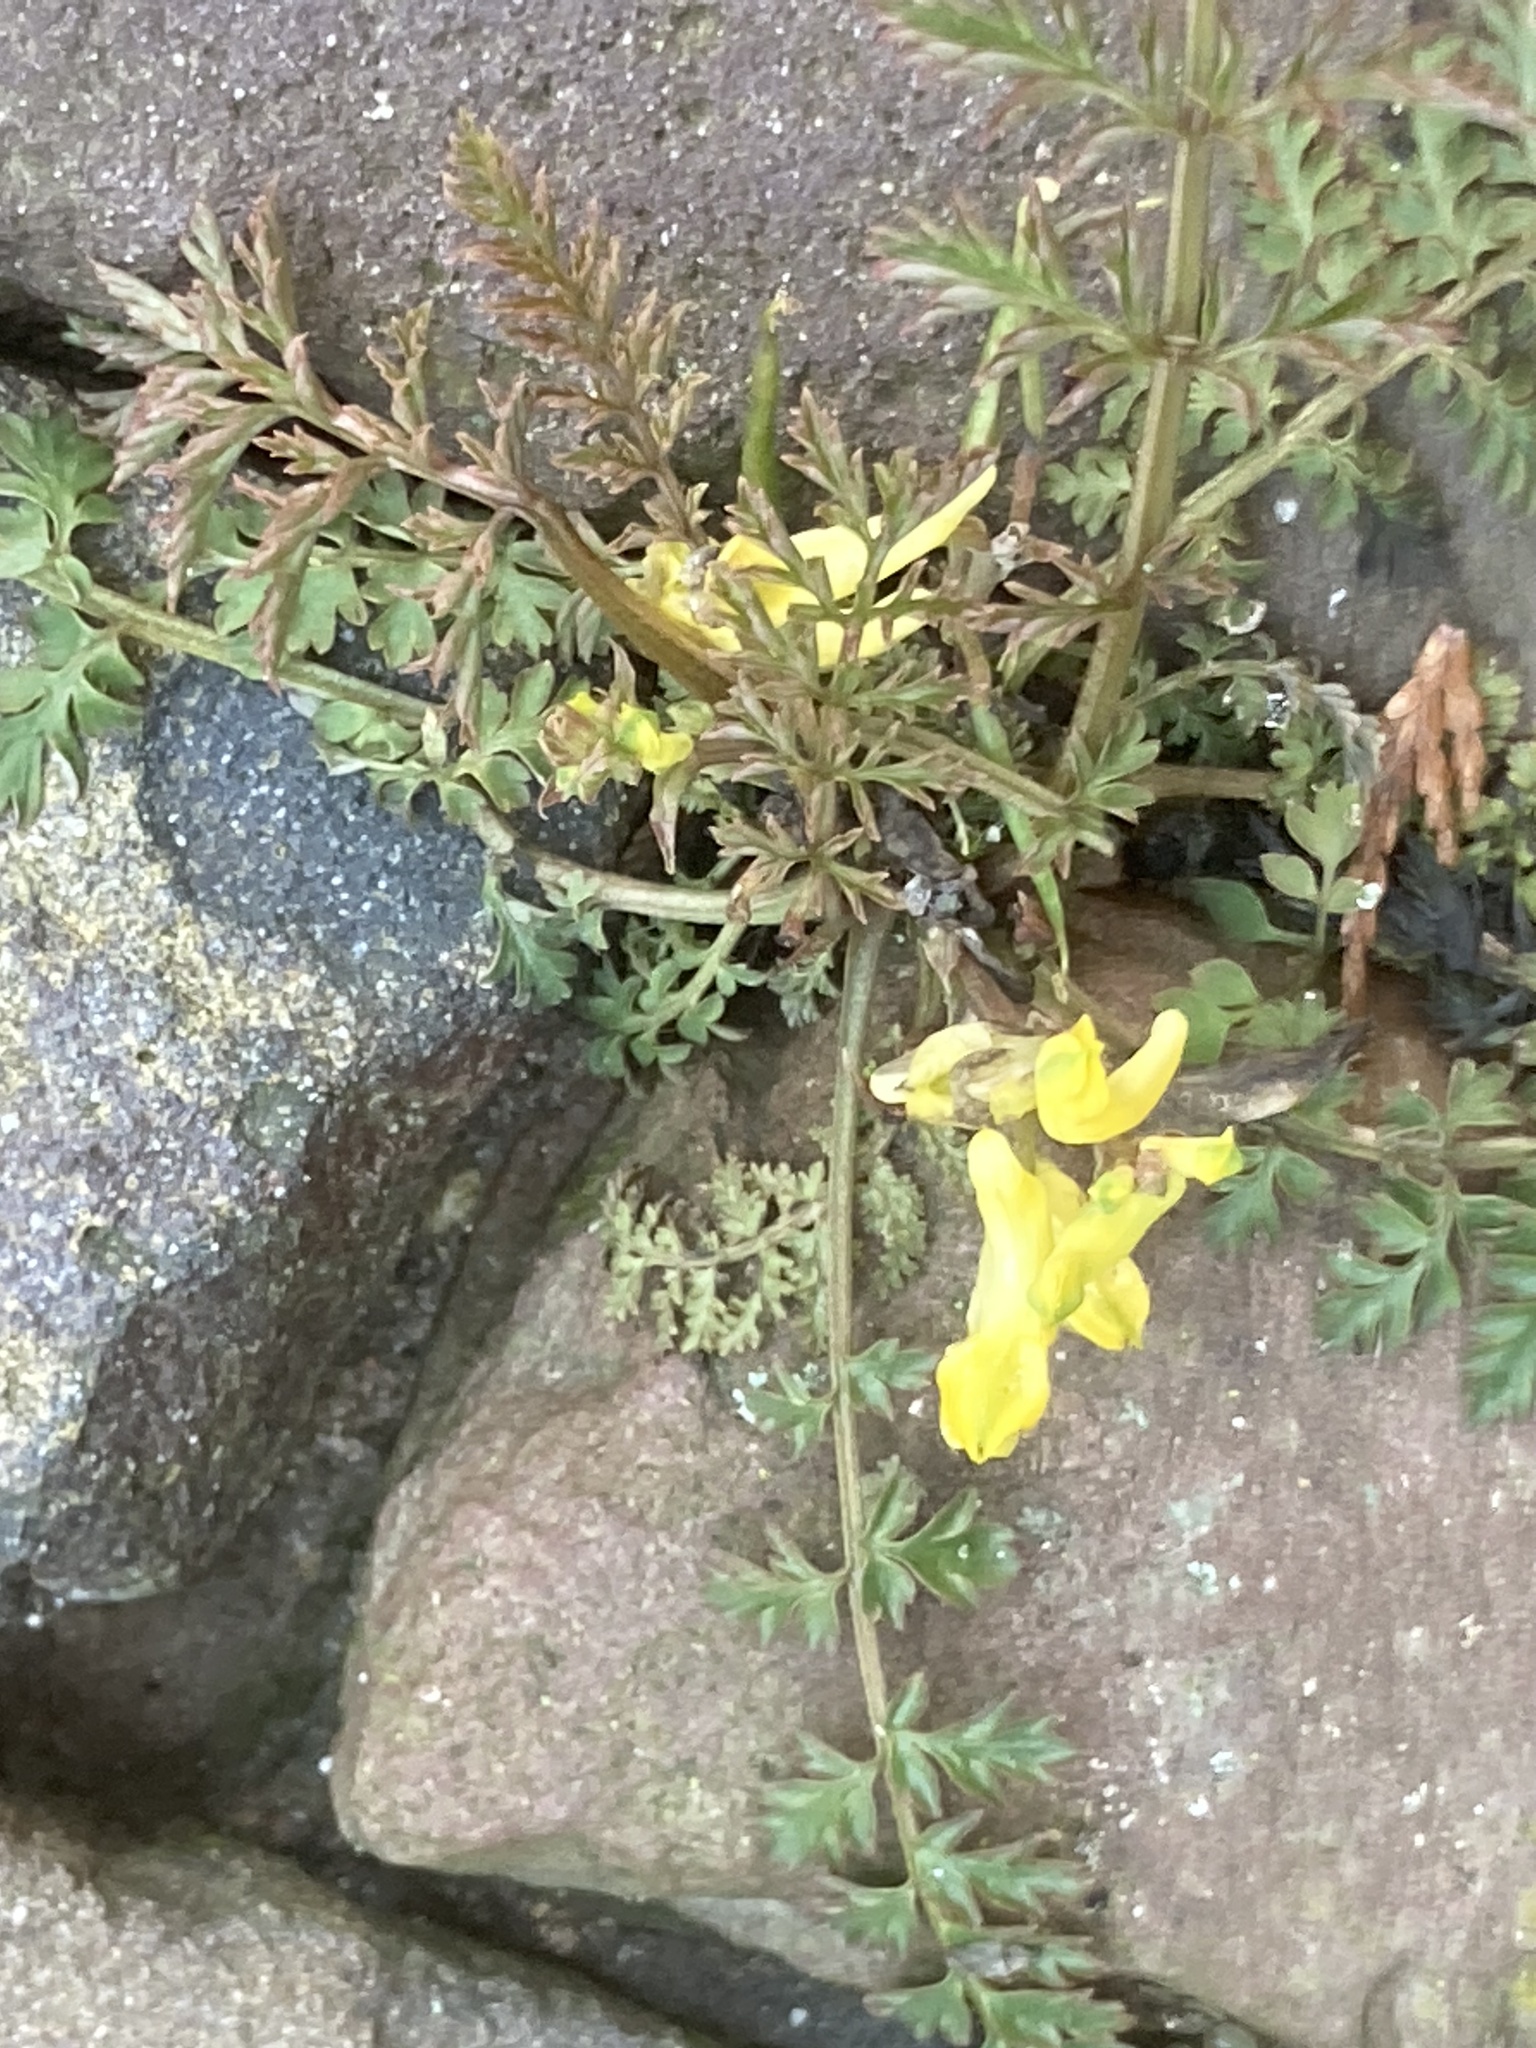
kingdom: Plantae
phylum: Tracheophyta
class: Magnoliopsida
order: Ranunculales
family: Papaveraceae
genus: Corydalis
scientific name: Corydalis cheilanthifolia
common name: Fern-leaved corydalis
